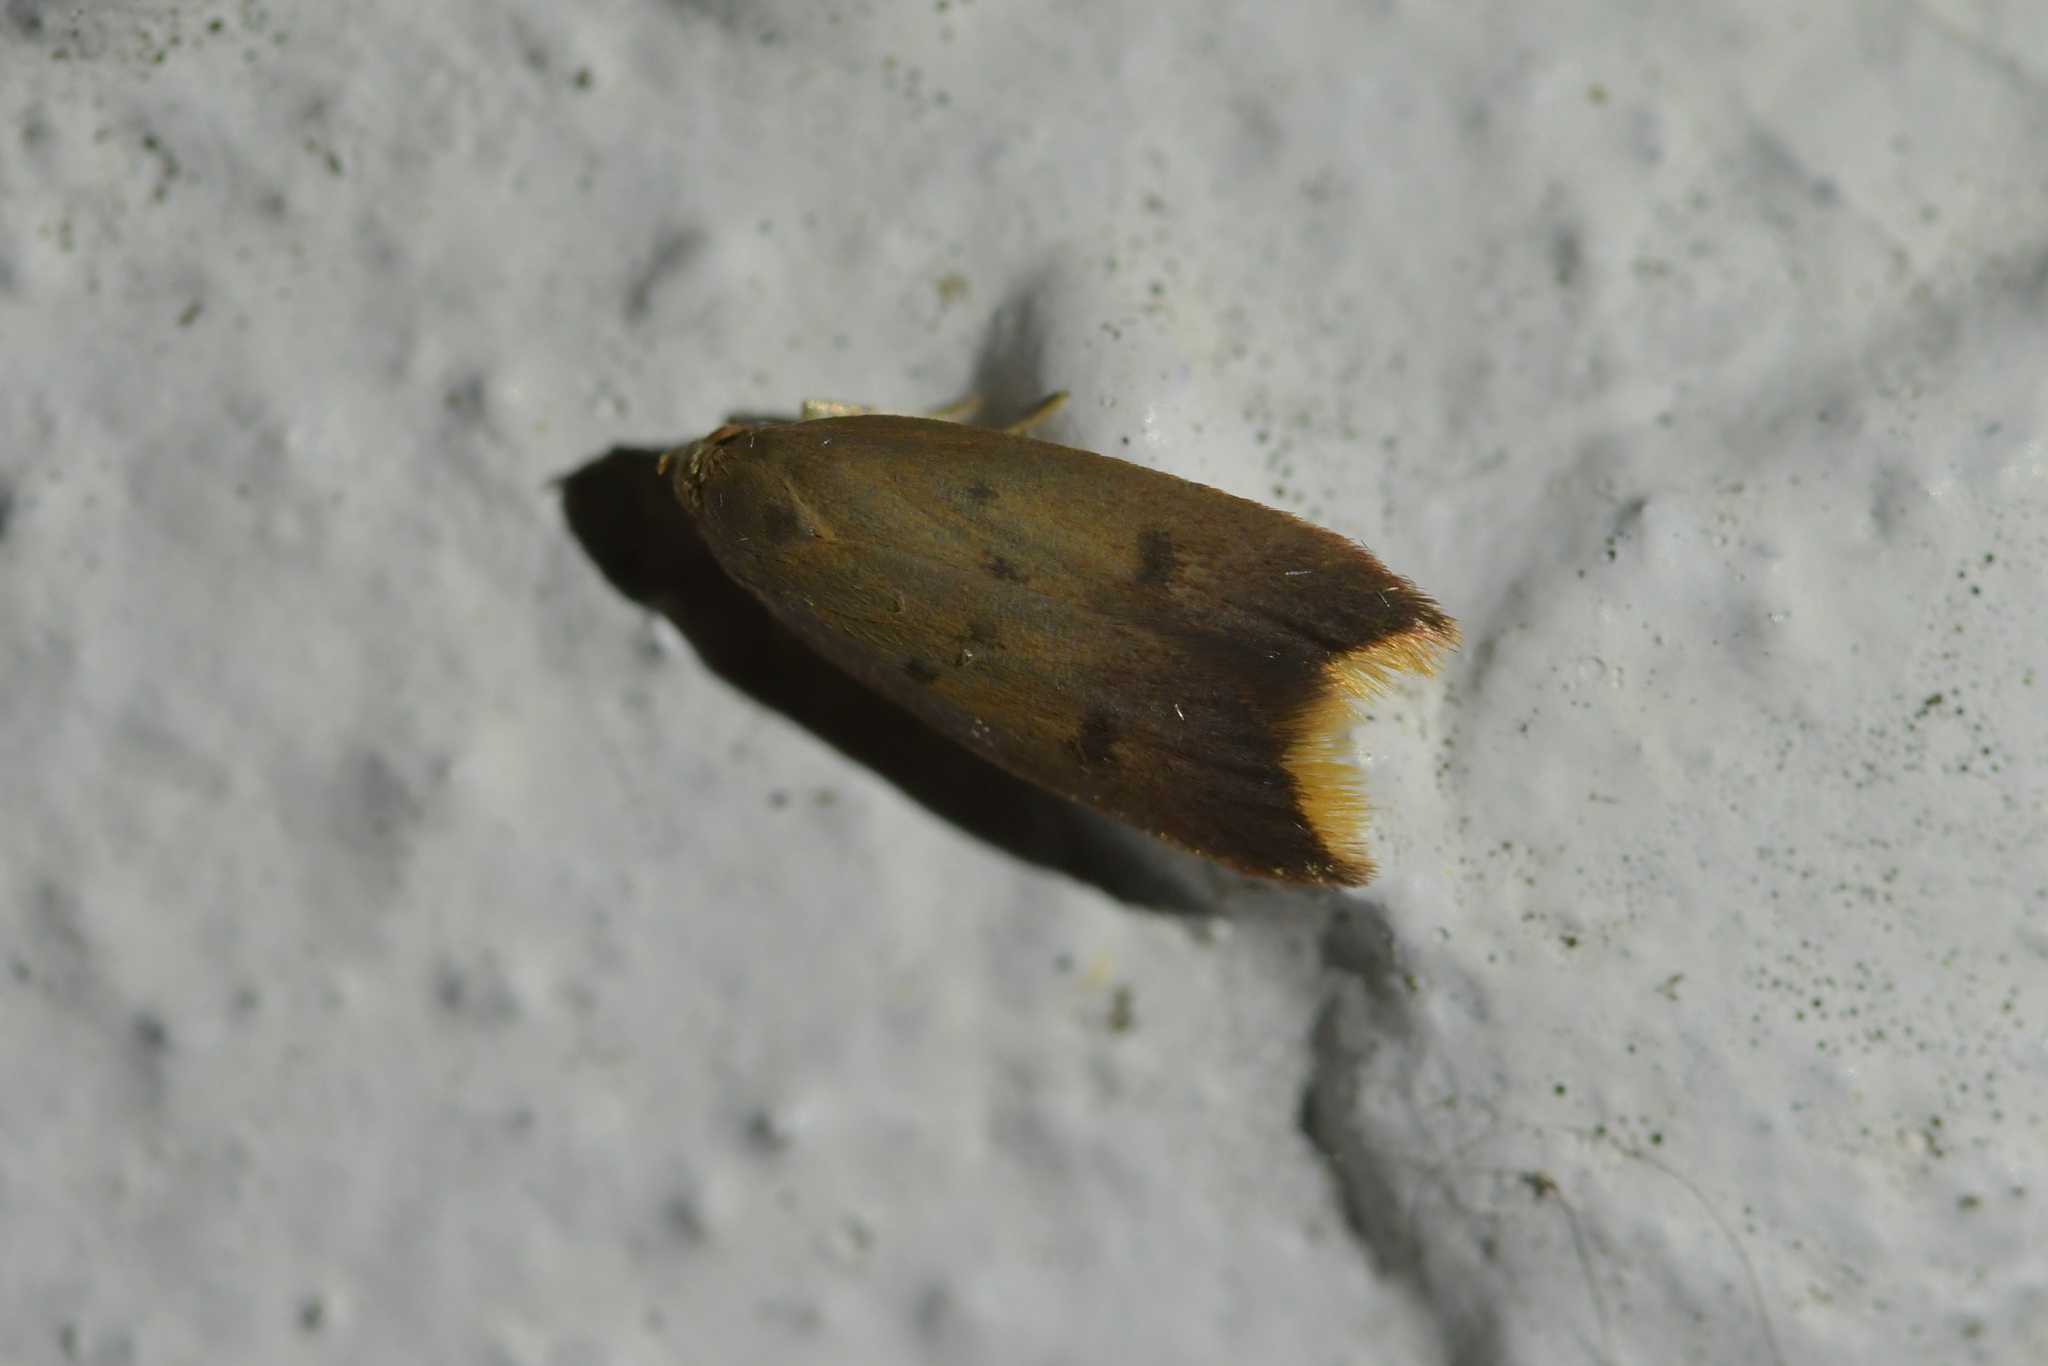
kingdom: Animalia
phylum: Arthropoda
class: Insecta
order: Lepidoptera
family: Oecophoridae
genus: Tachystola
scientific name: Tachystola acroxantha
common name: Ruddy streak
